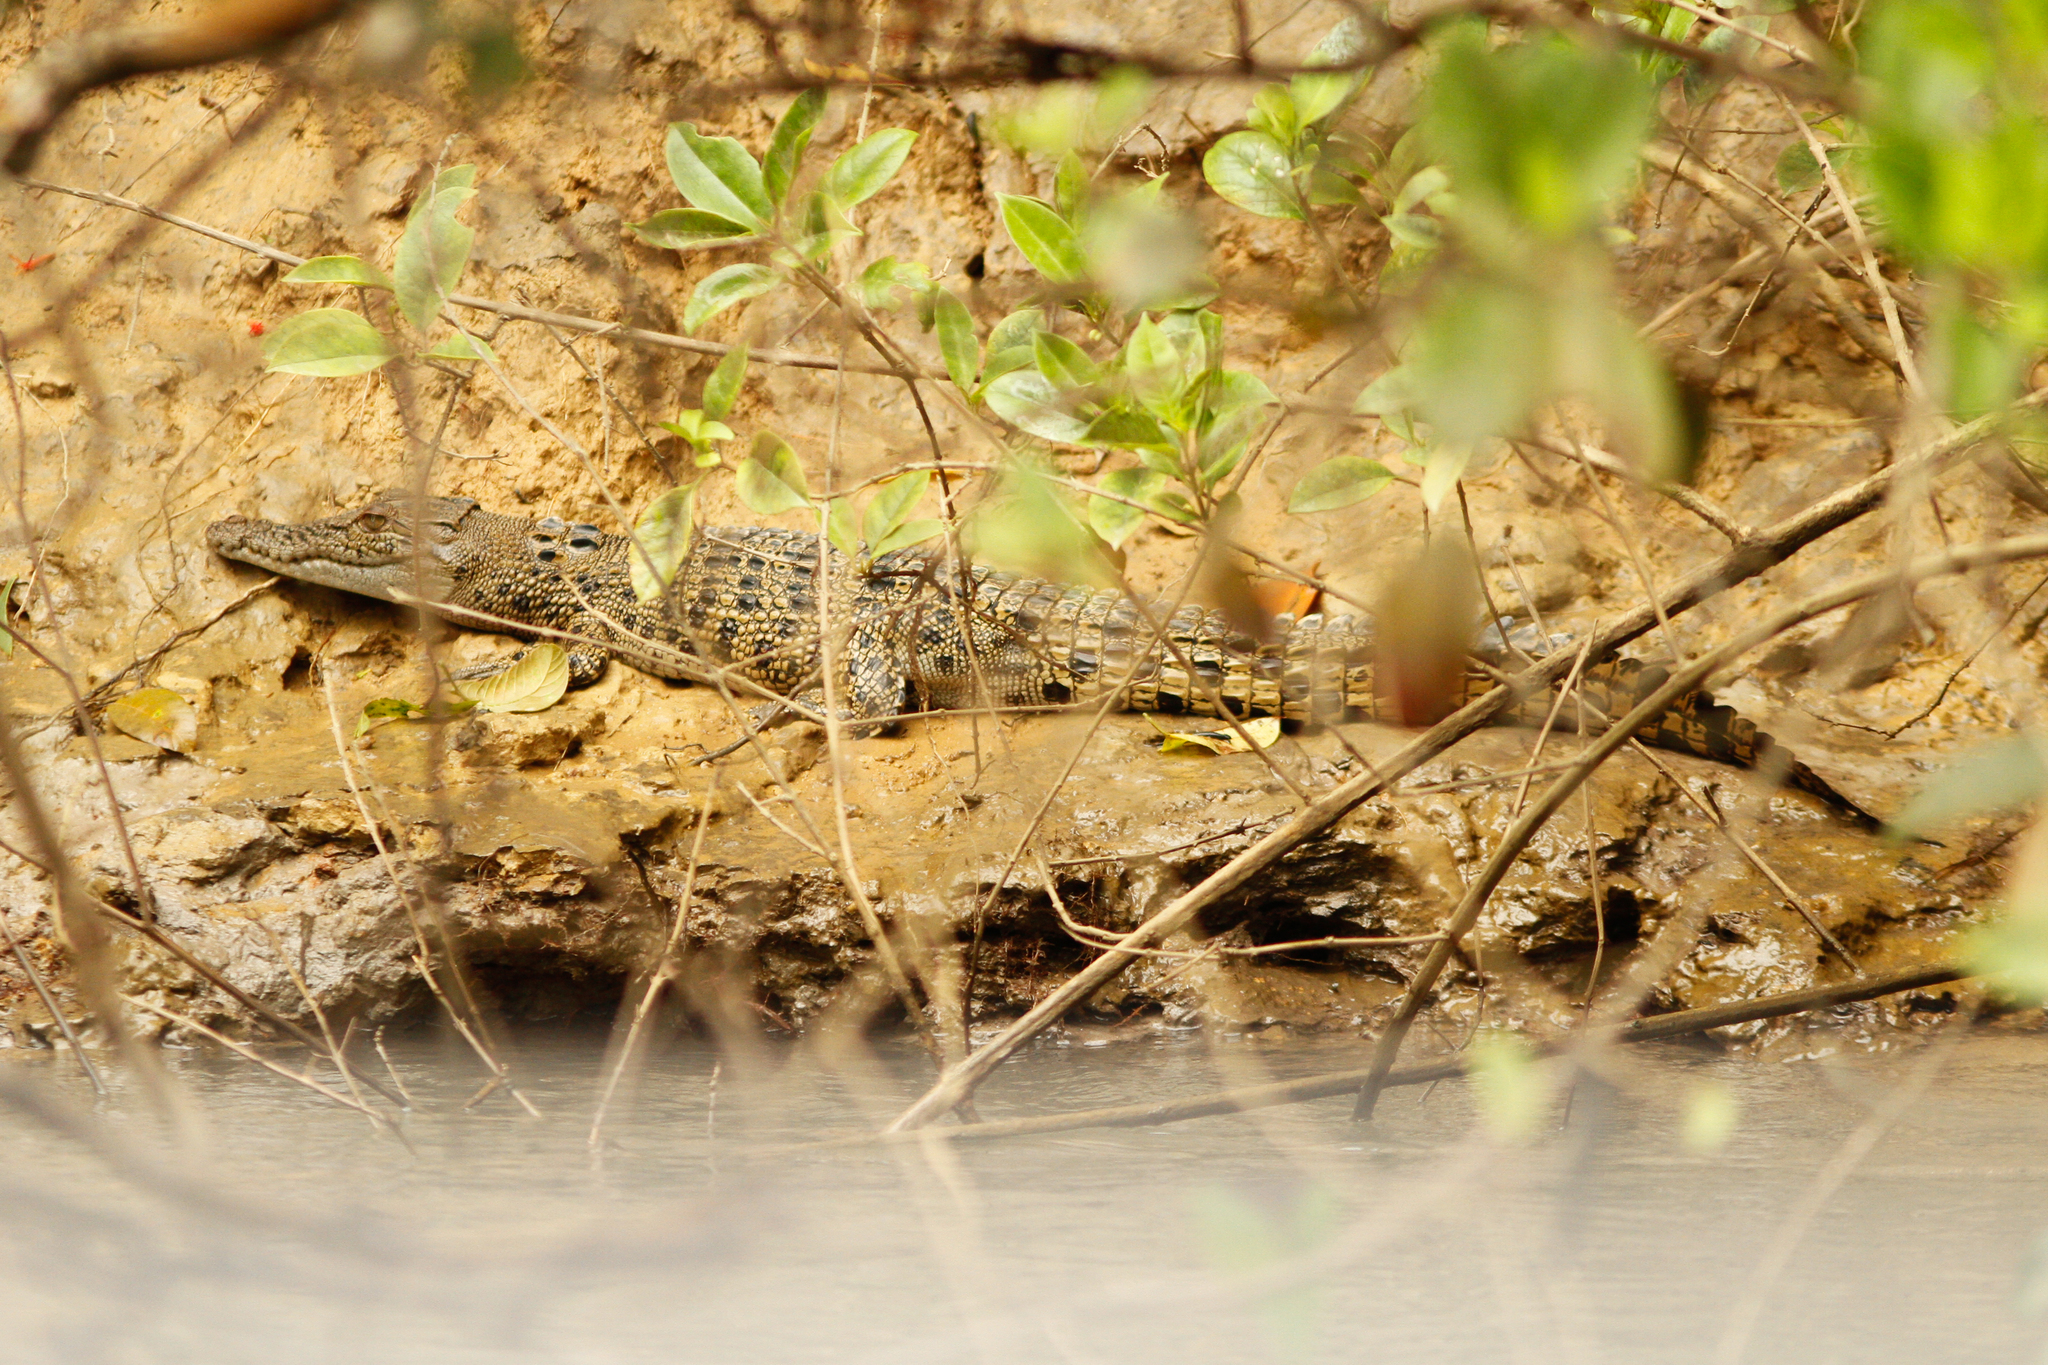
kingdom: Animalia
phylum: Chordata
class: Crocodylia
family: Crocodylidae
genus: Crocodylus
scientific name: Crocodylus porosus
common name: Saltwater crocodile
